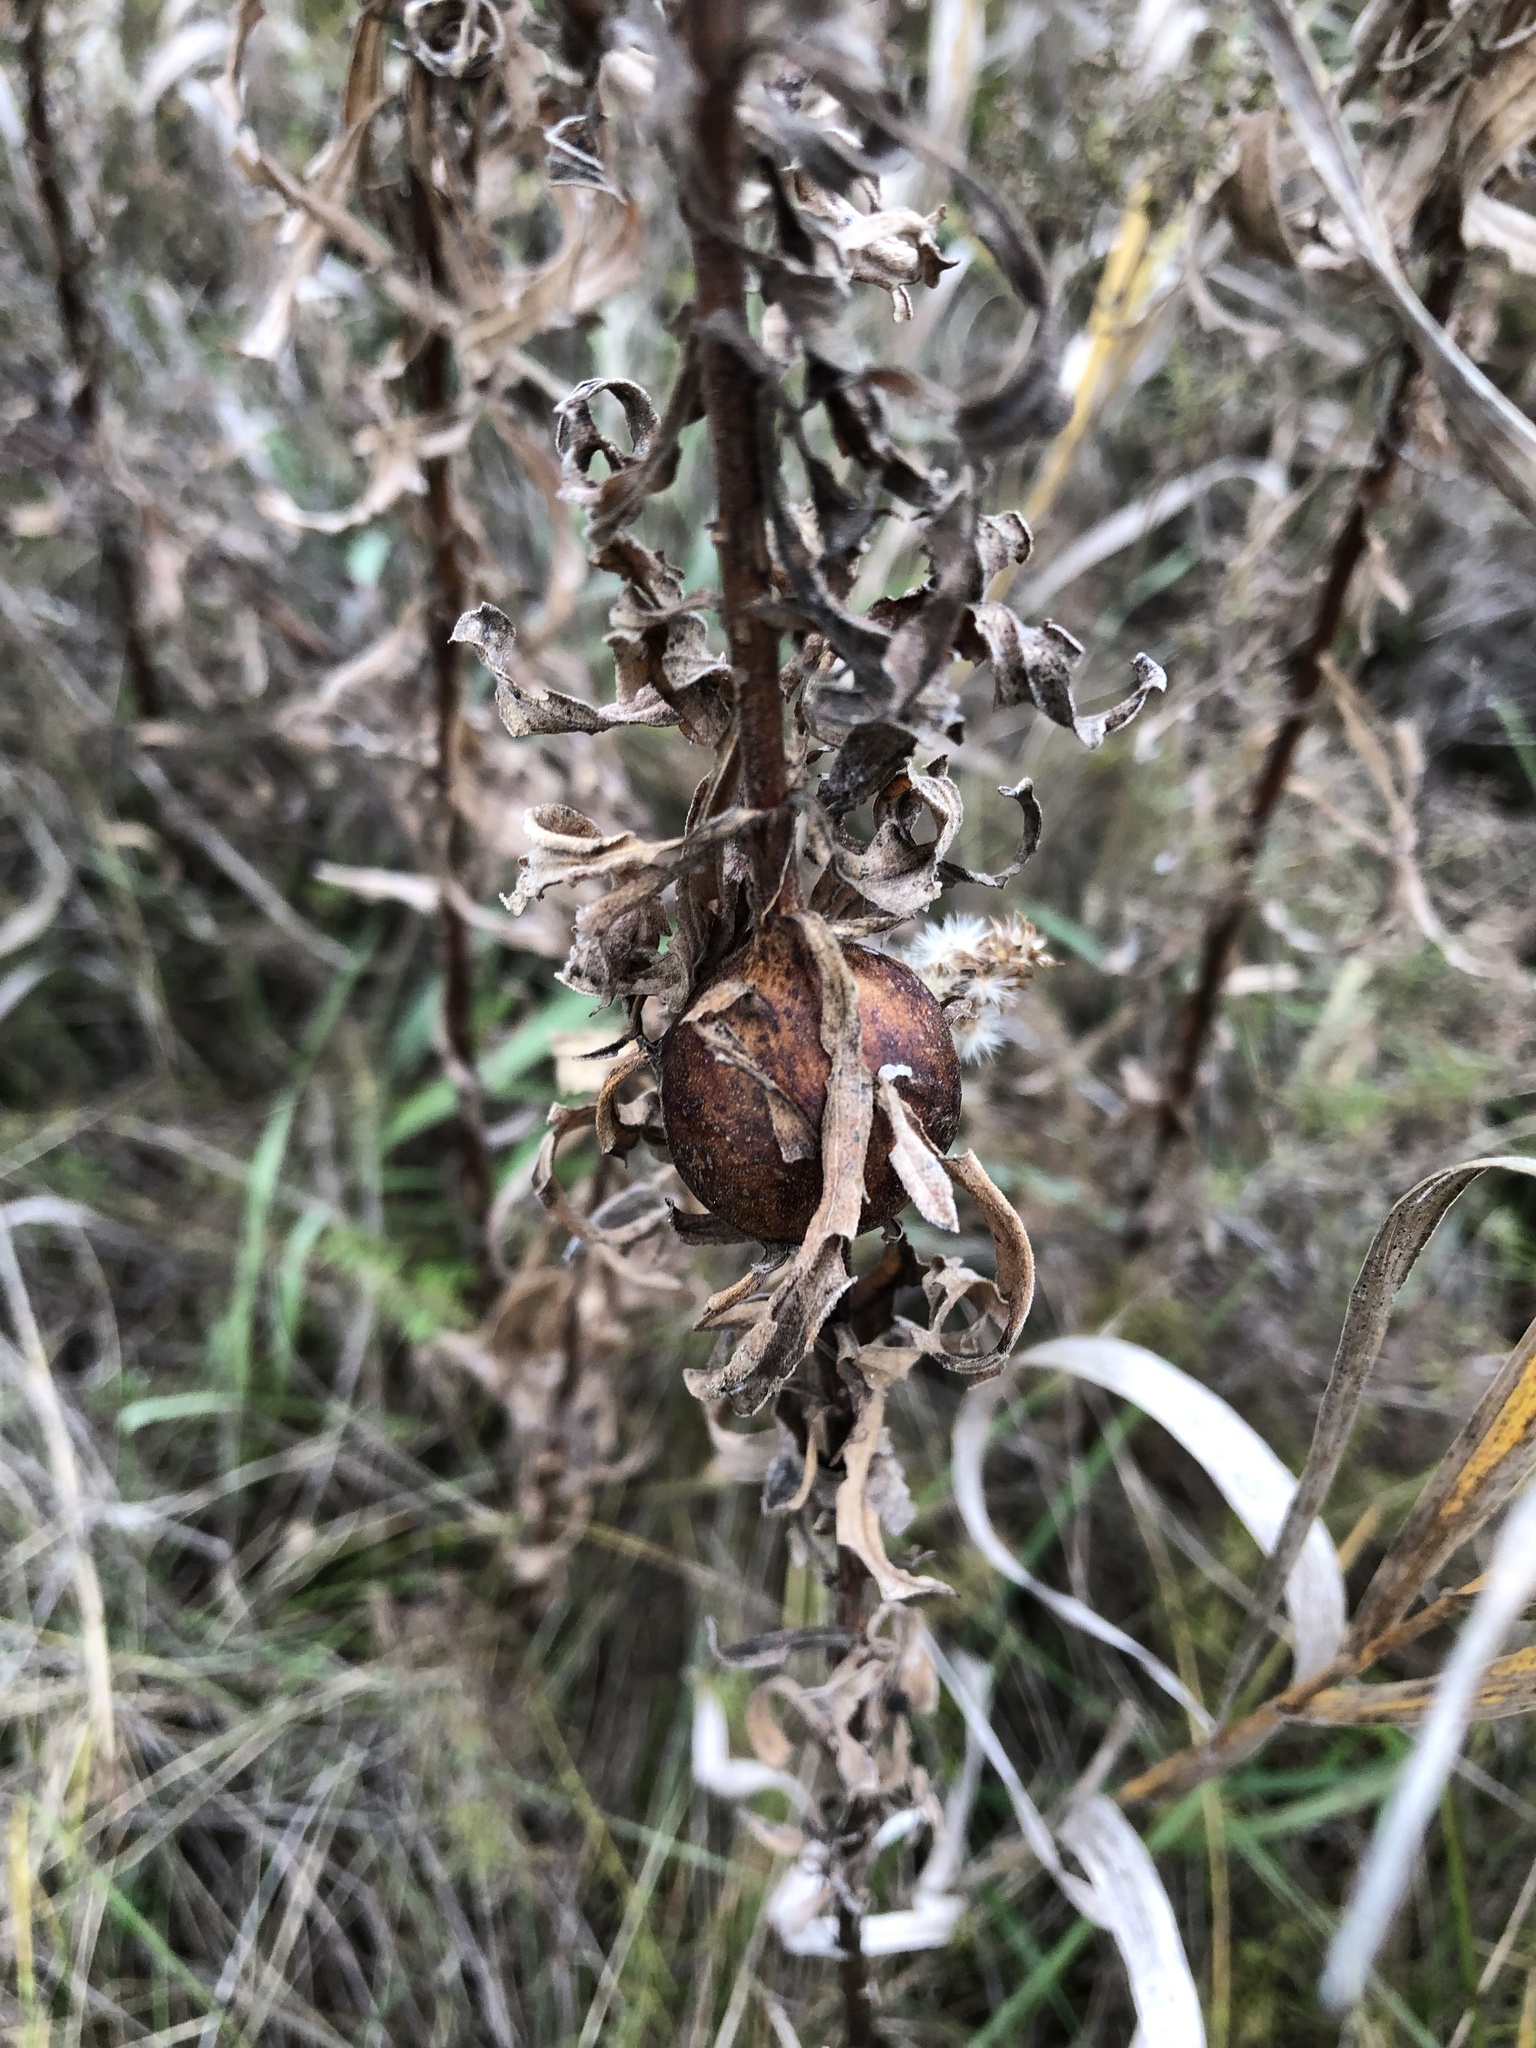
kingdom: Animalia
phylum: Arthropoda
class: Insecta
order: Diptera
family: Tephritidae
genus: Eurosta
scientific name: Eurosta solidaginis
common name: Goldenrod gall fly
